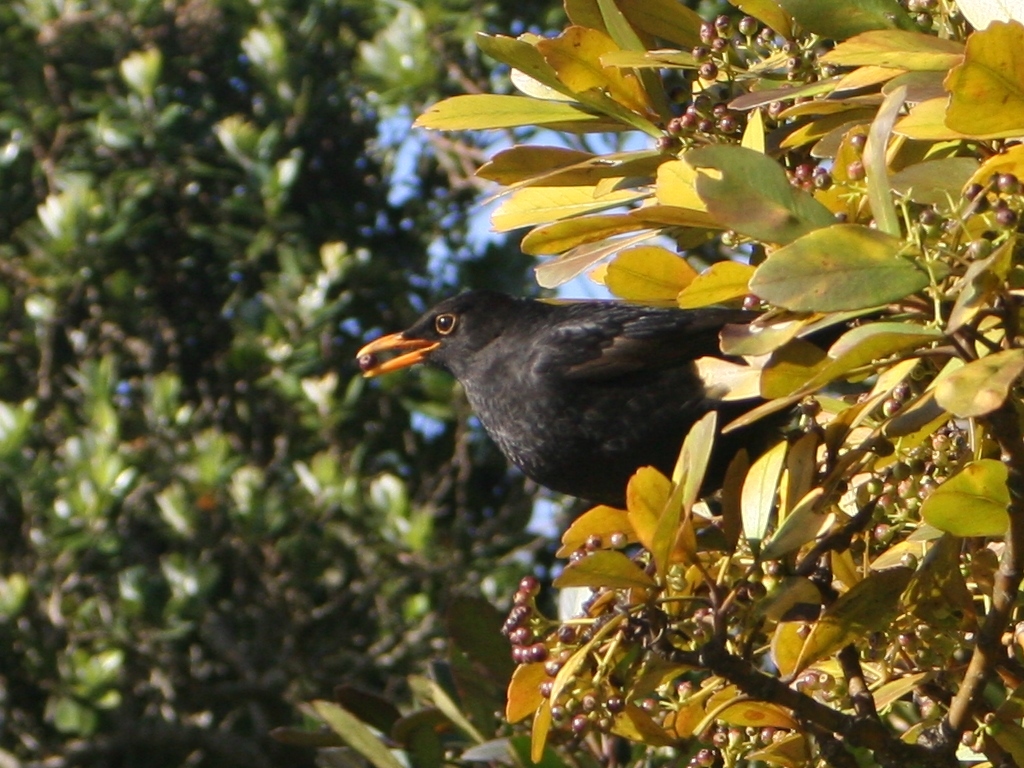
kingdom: Animalia
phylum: Chordata
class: Aves
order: Passeriformes
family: Turdidae
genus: Turdus
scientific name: Turdus merula
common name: Common blackbird
